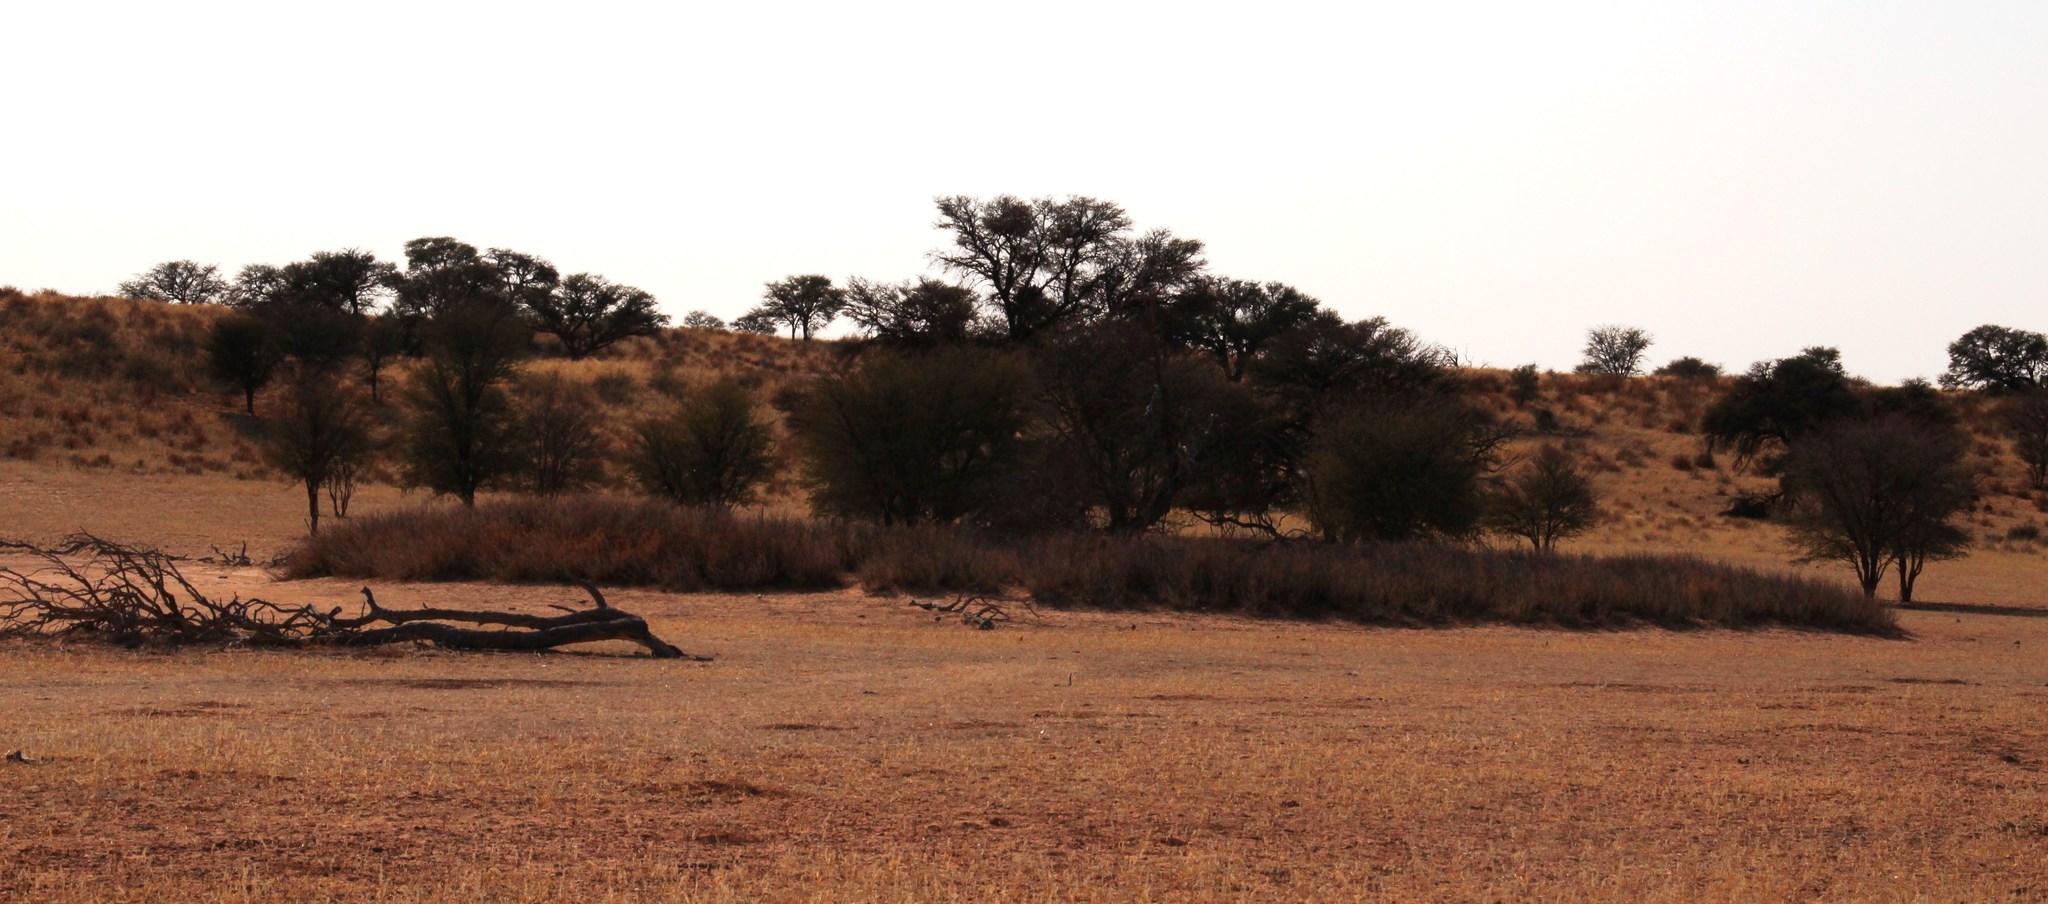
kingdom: Plantae
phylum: Tracheophyta
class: Magnoliopsida
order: Fabales
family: Fabaceae
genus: Vachellia
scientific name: Vachellia erioloba
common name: Camel thorn
